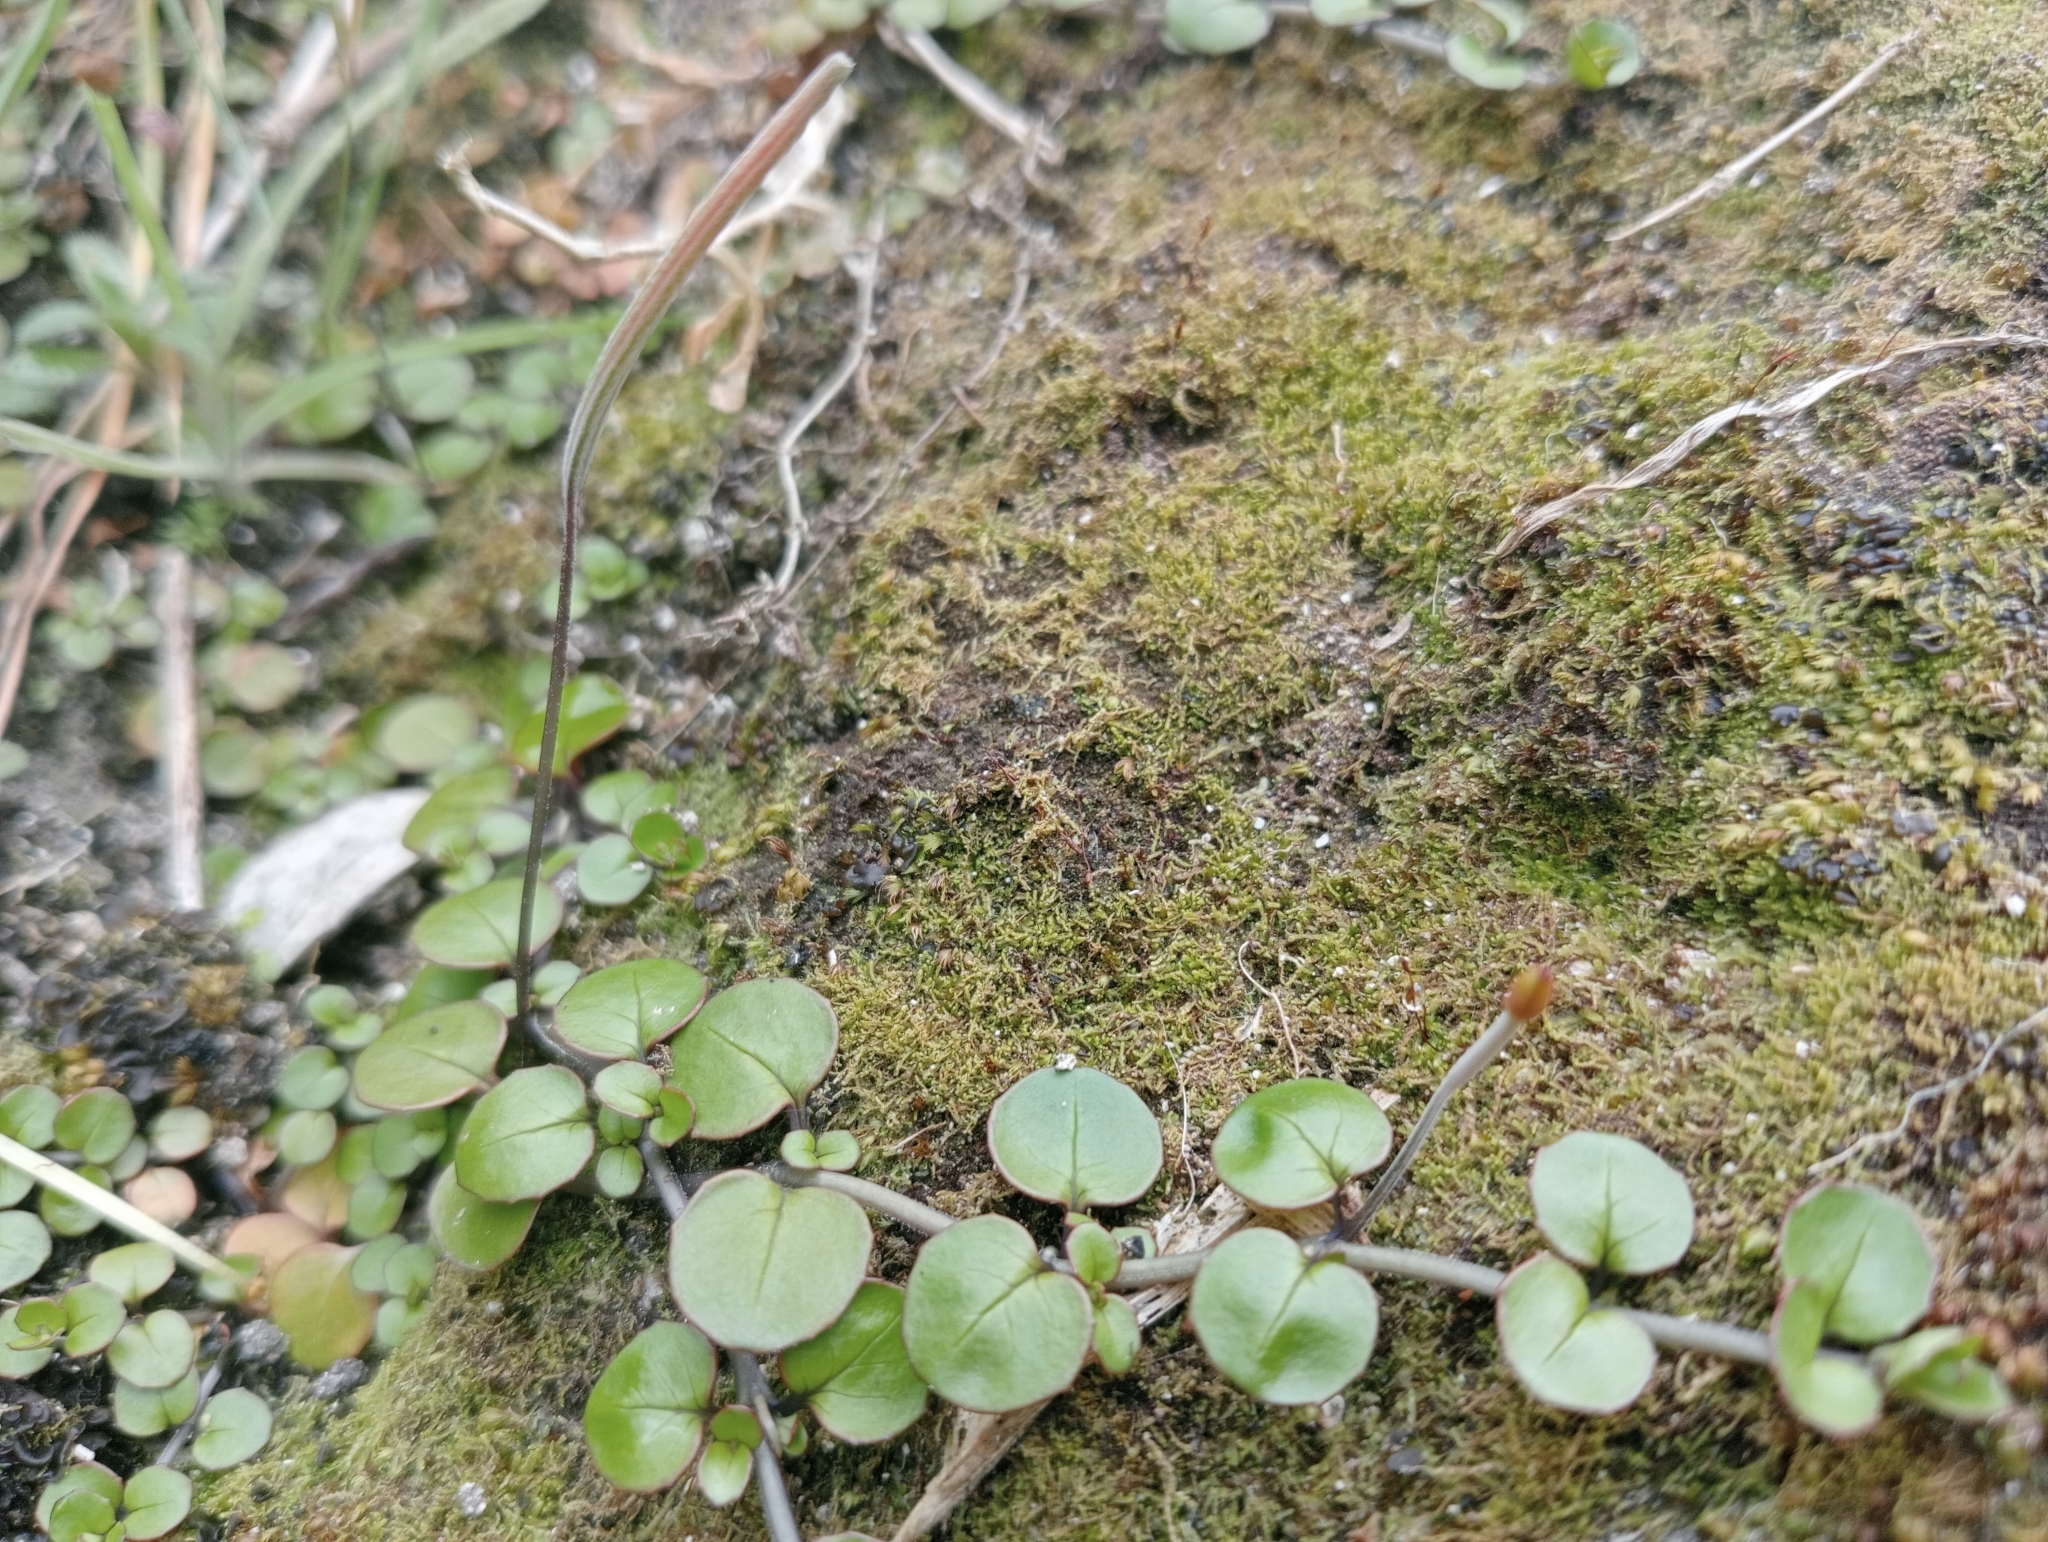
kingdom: Plantae
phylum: Tracheophyta
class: Magnoliopsida
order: Myrtales
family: Onagraceae
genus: Epilobium
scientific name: Epilobium nummularifolium
